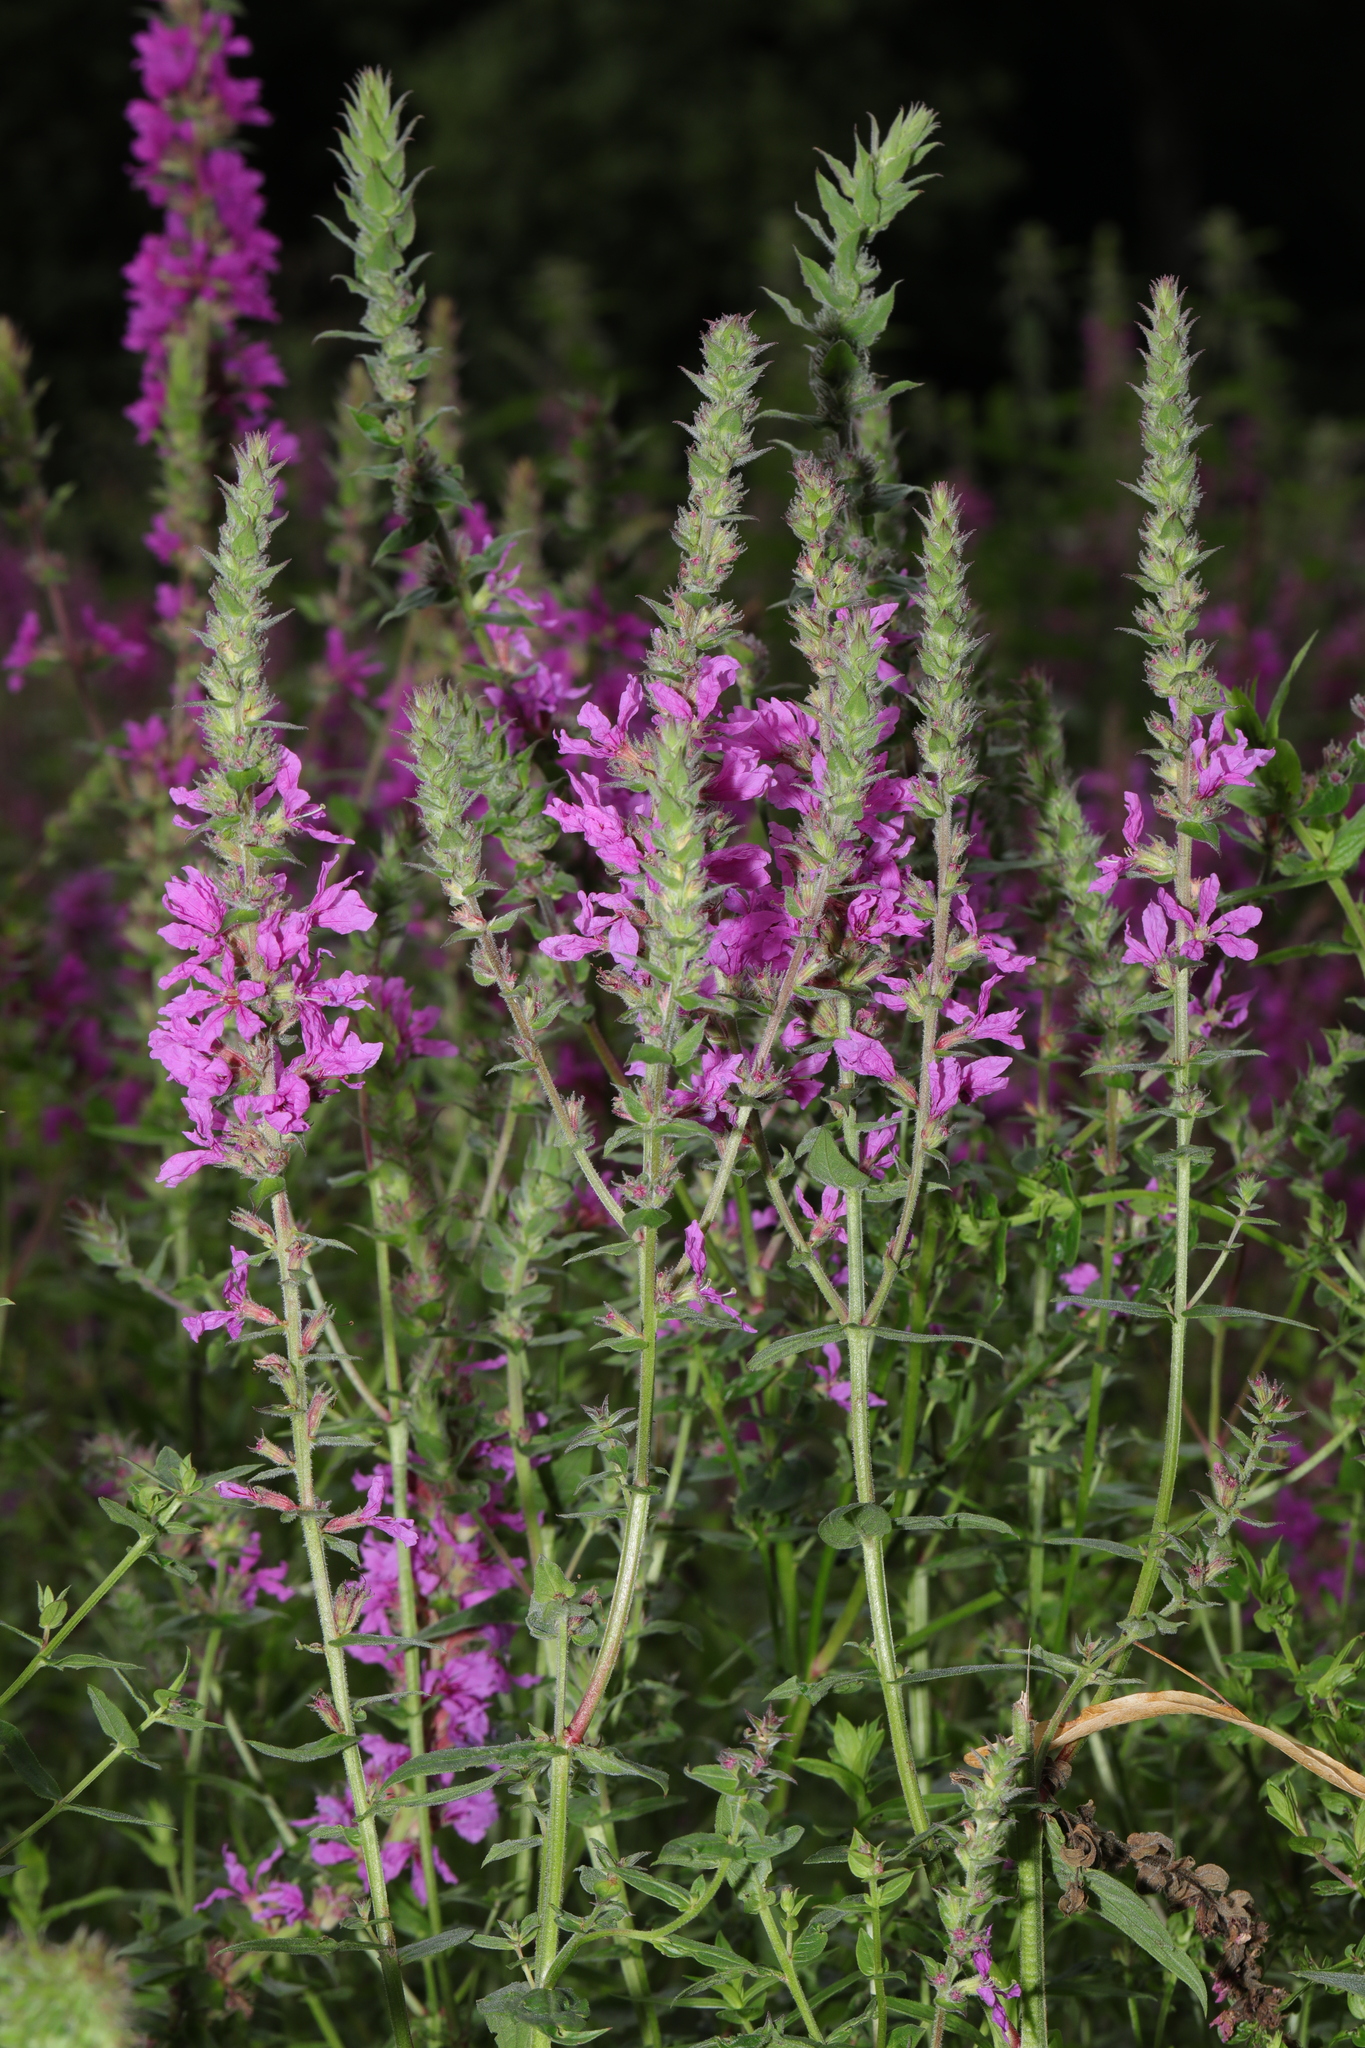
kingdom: Plantae
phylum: Tracheophyta
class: Magnoliopsida
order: Myrtales
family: Lythraceae
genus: Lythrum
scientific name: Lythrum salicaria
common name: Purple loosestrife
